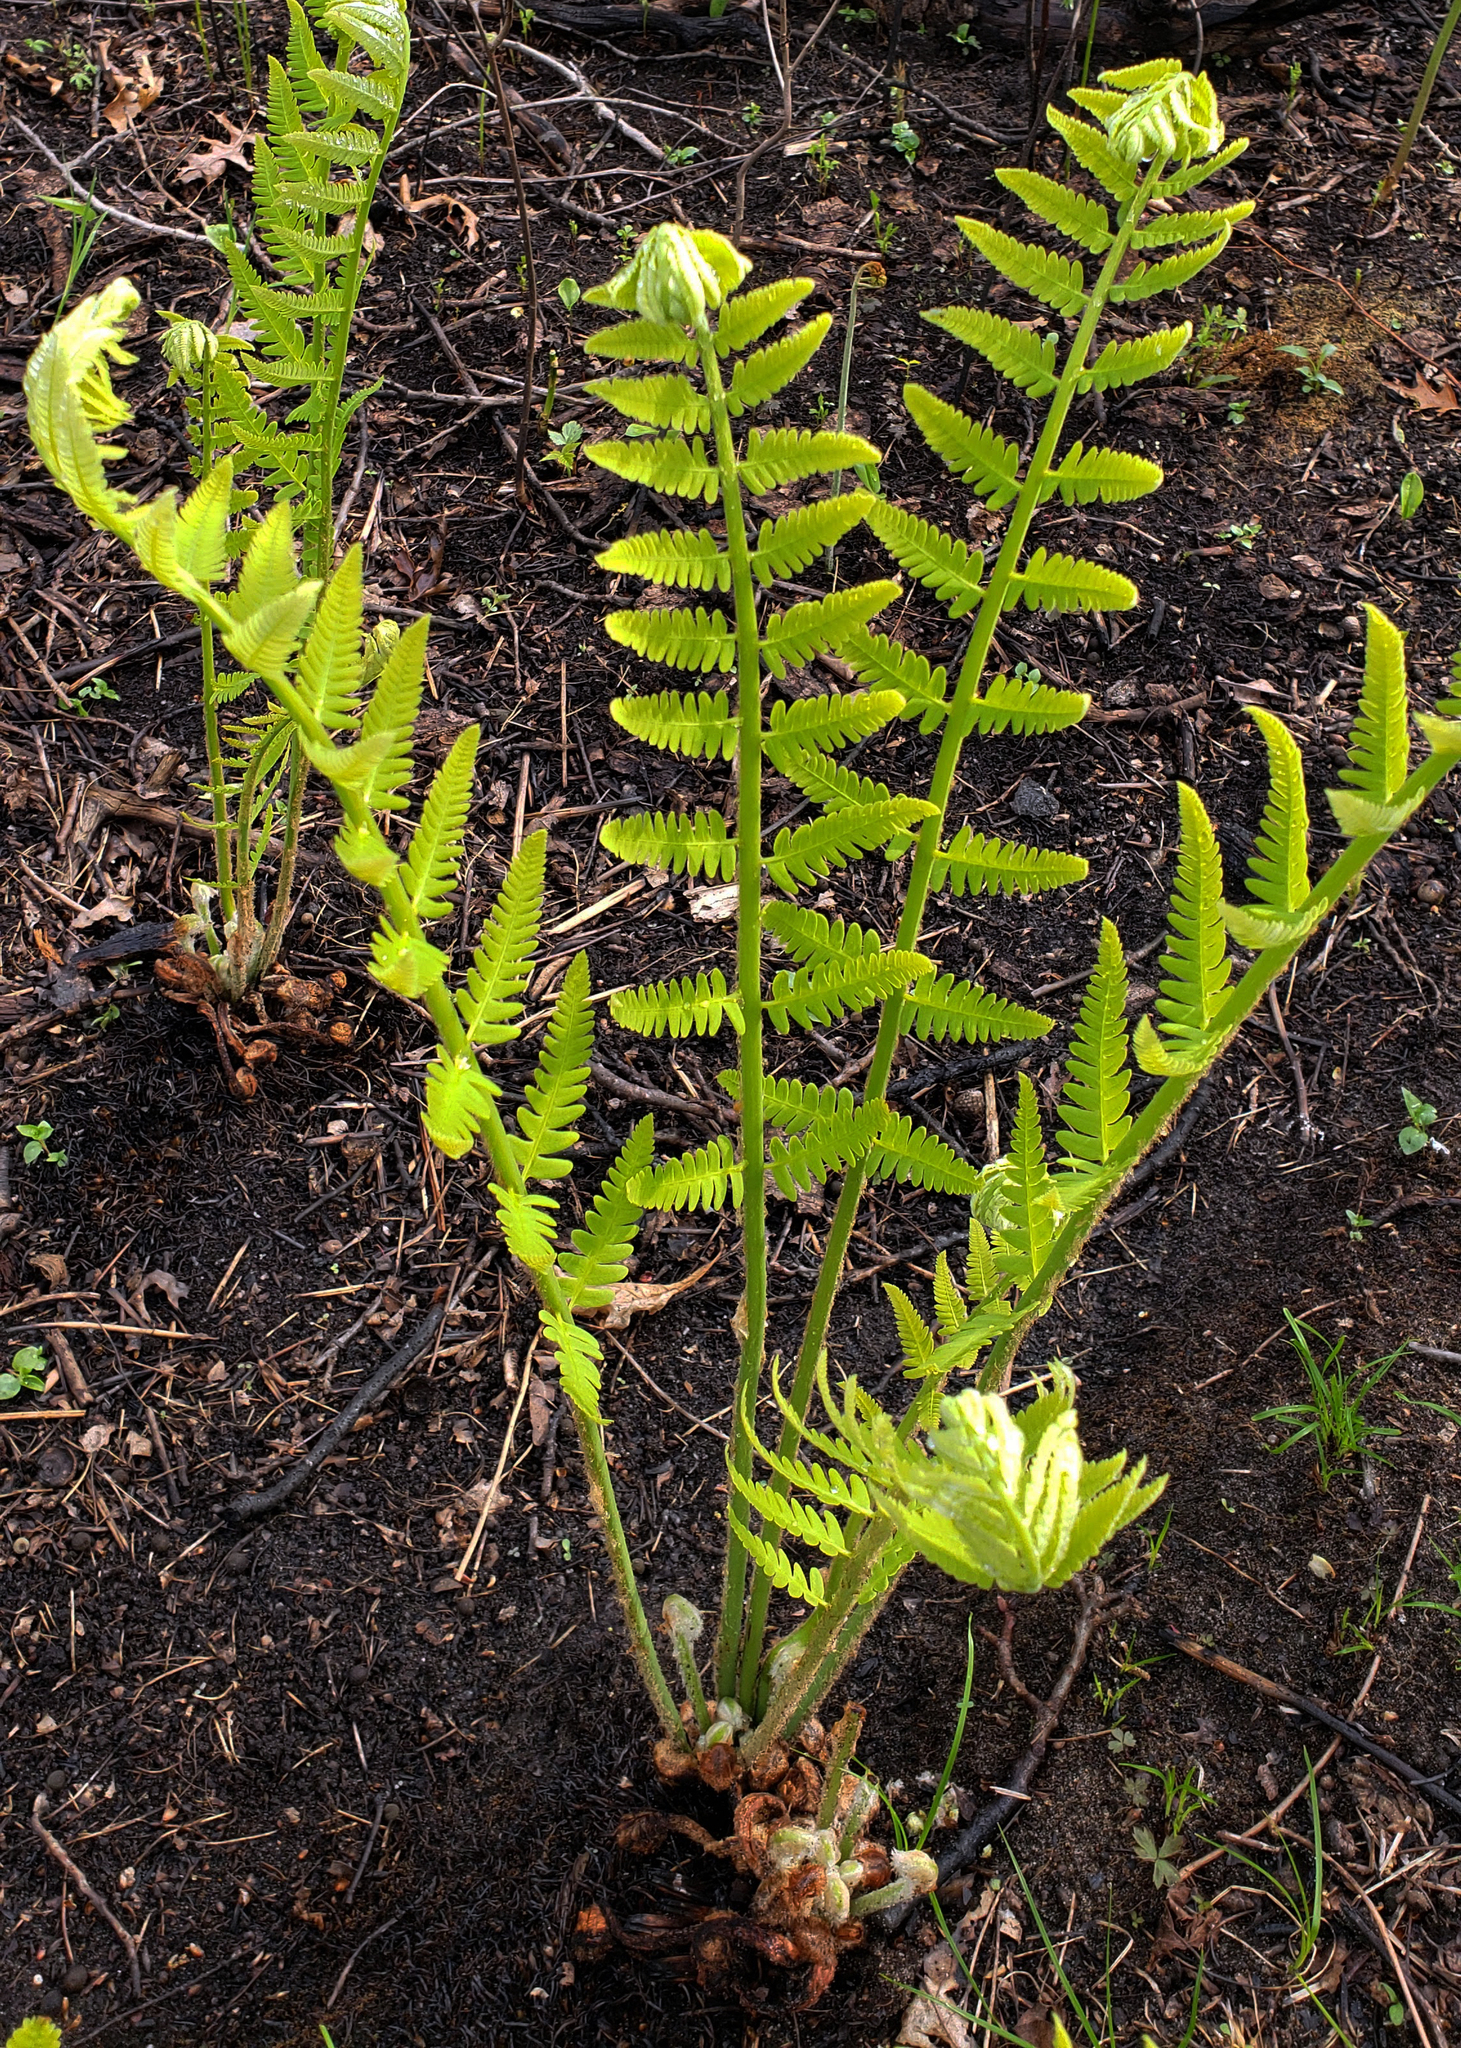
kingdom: Plantae
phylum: Tracheophyta
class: Polypodiopsida
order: Osmundales
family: Osmundaceae
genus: Claytosmunda
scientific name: Claytosmunda claytoniana
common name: Clayton's fern
